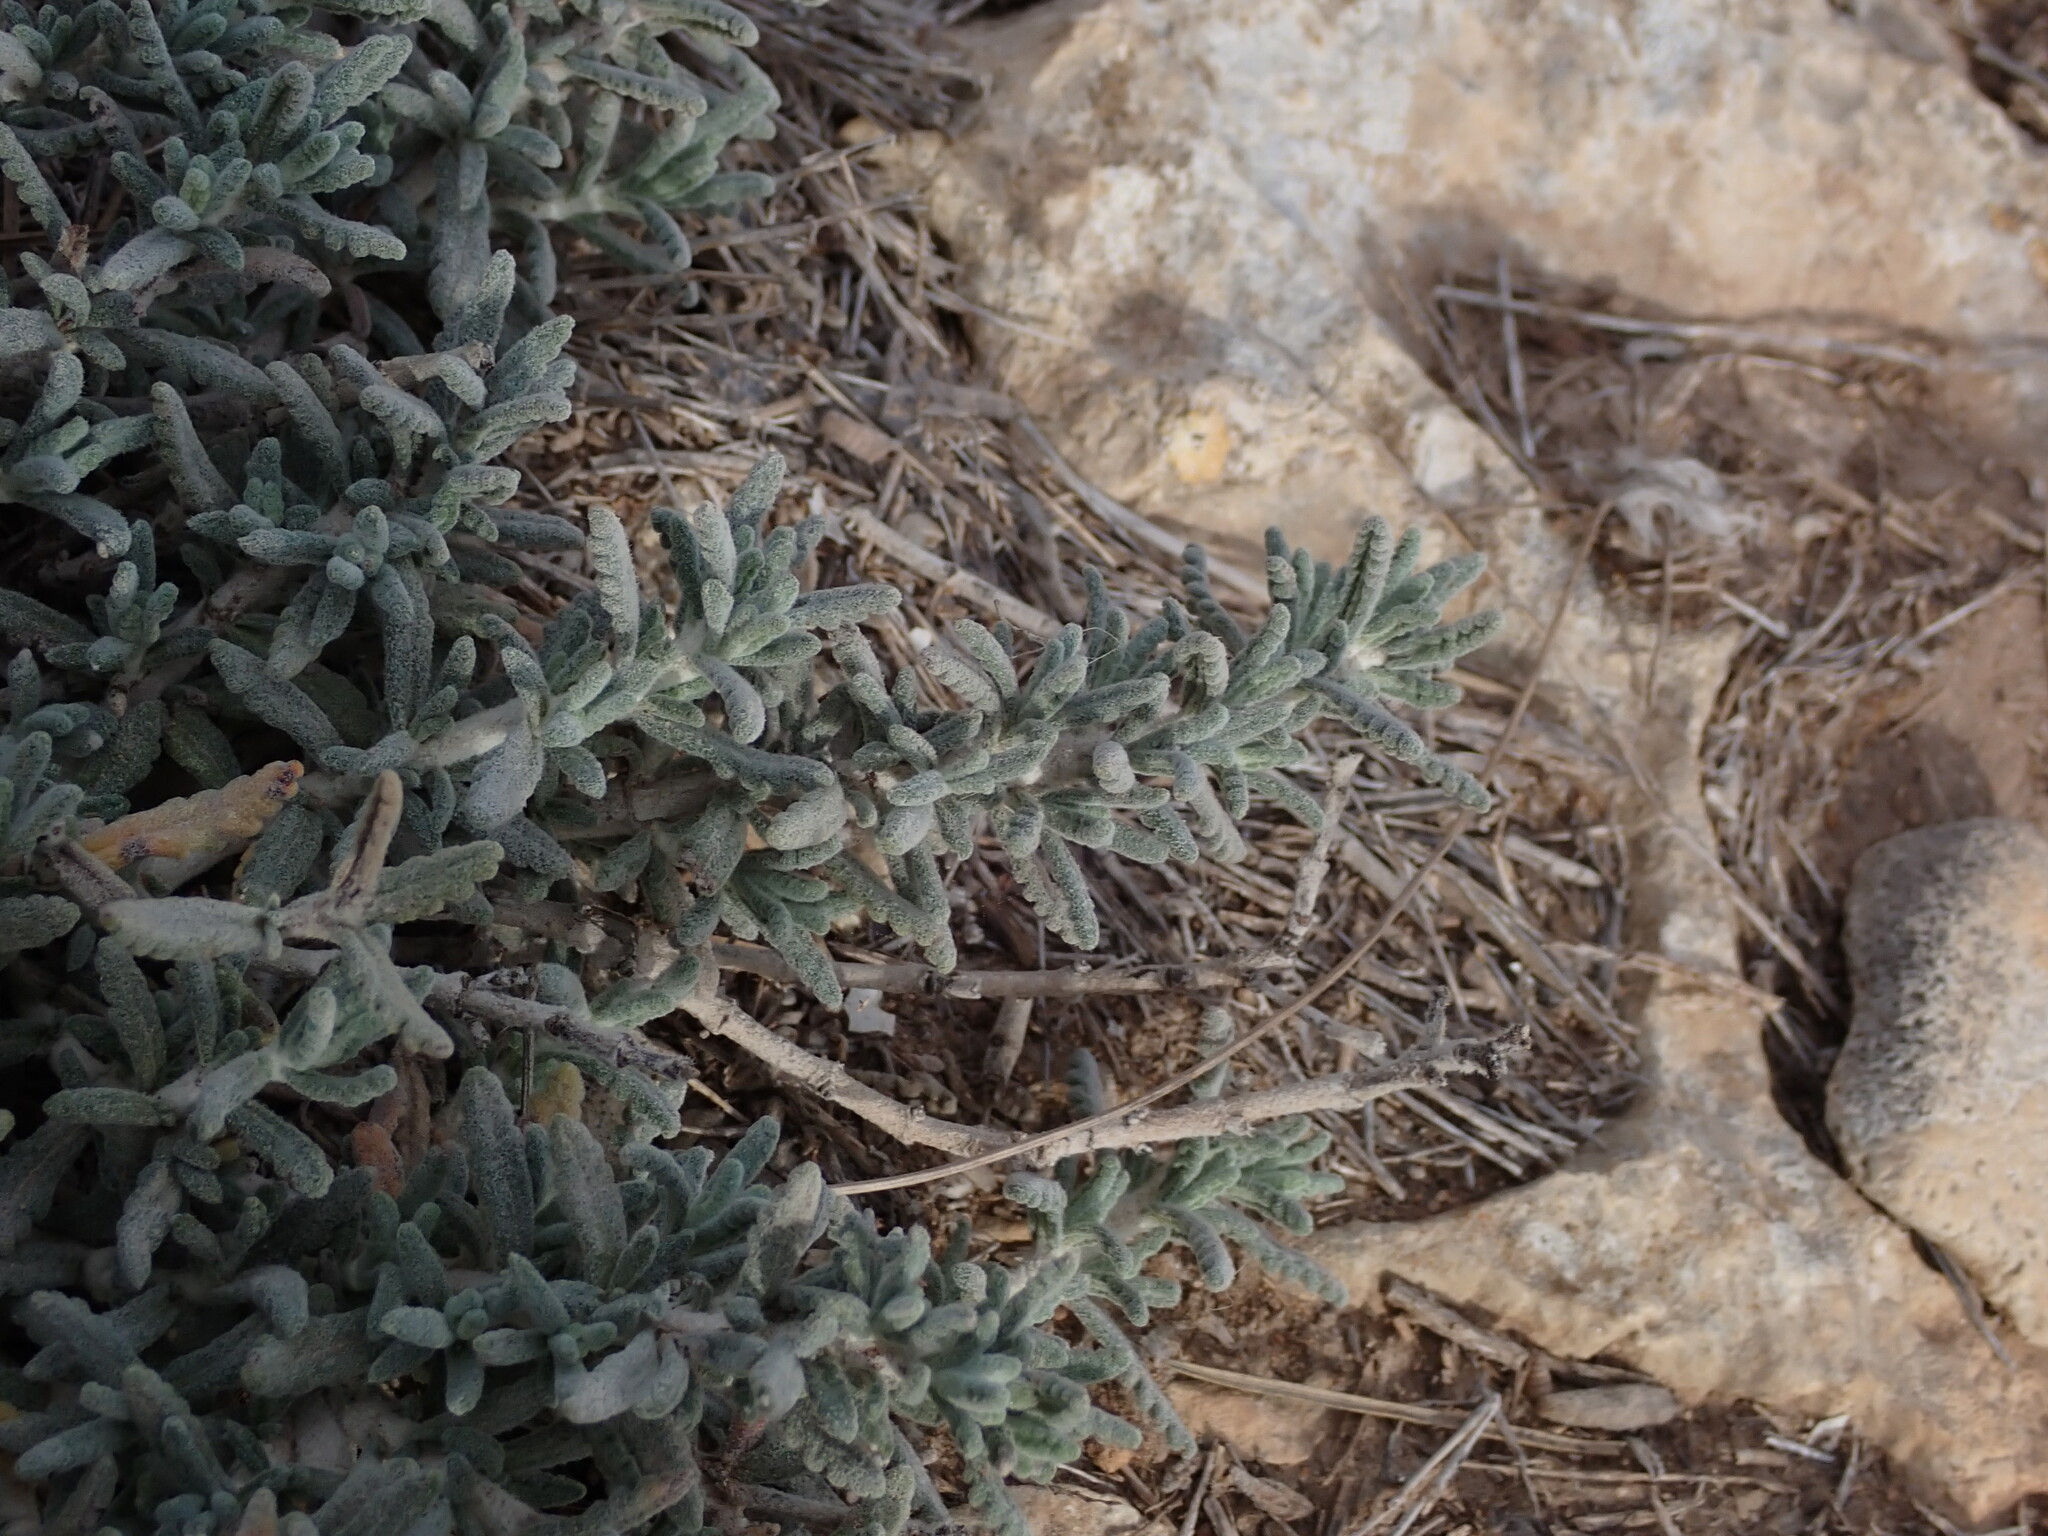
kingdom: Plantae
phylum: Tracheophyta
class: Magnoliopsida
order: Lamiales
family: Lamiaceae
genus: Teucrium
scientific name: Teucrium polium
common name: Poley
